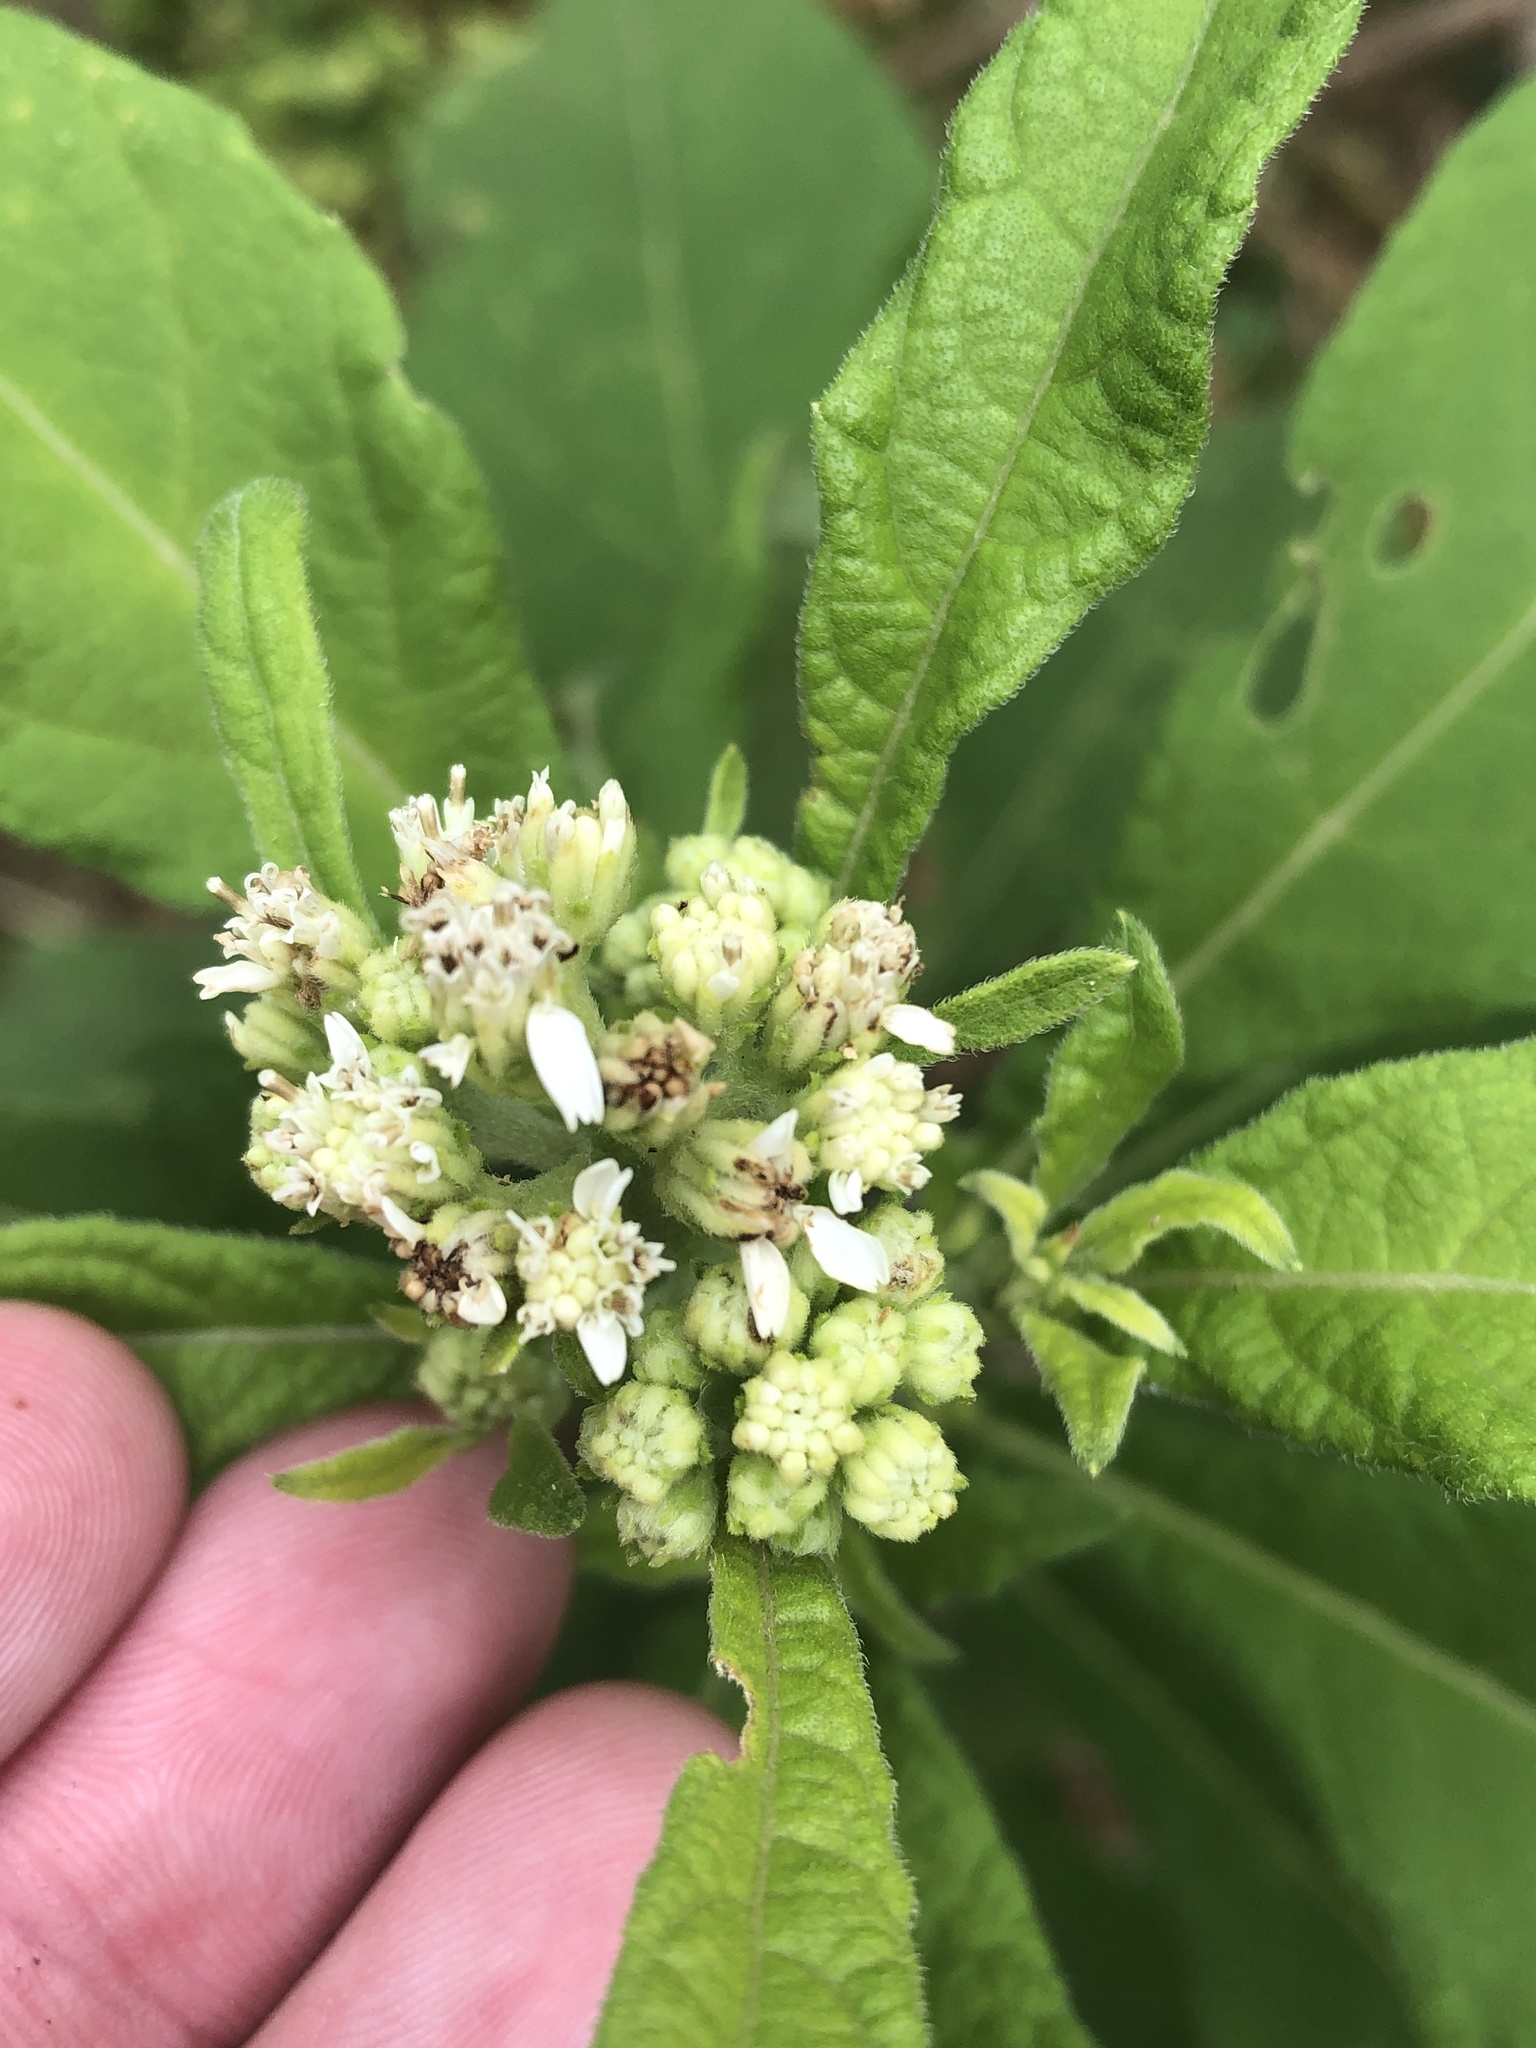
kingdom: Plantae
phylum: Tracheophyta
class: Magnoliopsida
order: Asterales
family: Asteraceae
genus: Verbesina
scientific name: Verbesina virginica
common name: Frostweed
